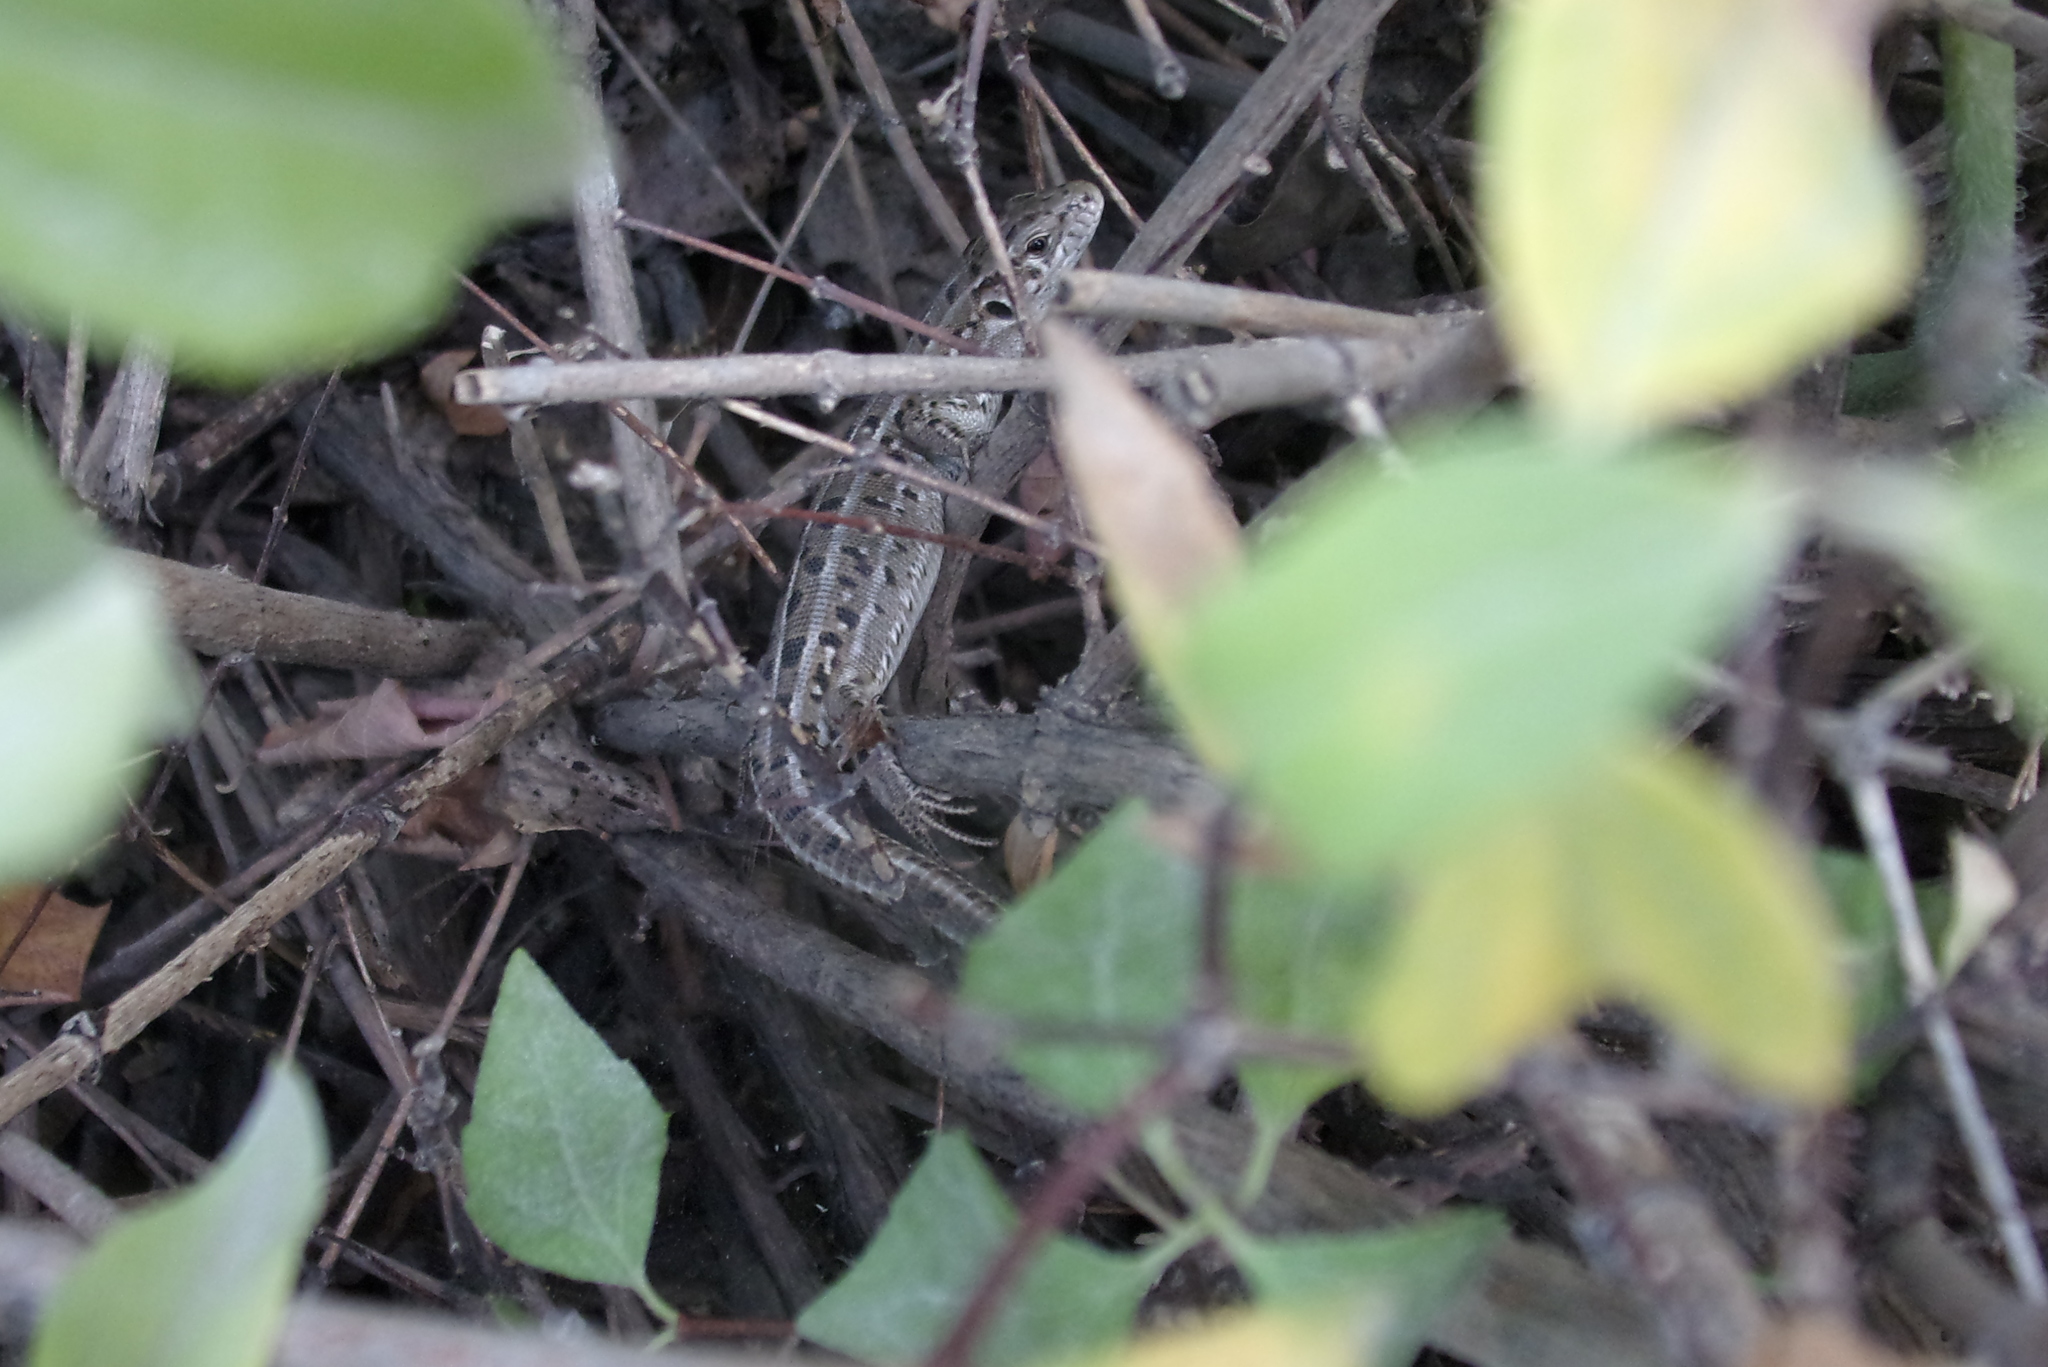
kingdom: Animalia
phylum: Chordata
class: Squamata
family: Lacertidae
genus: Lacerta
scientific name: Lacerta agilis
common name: Sand lizard
